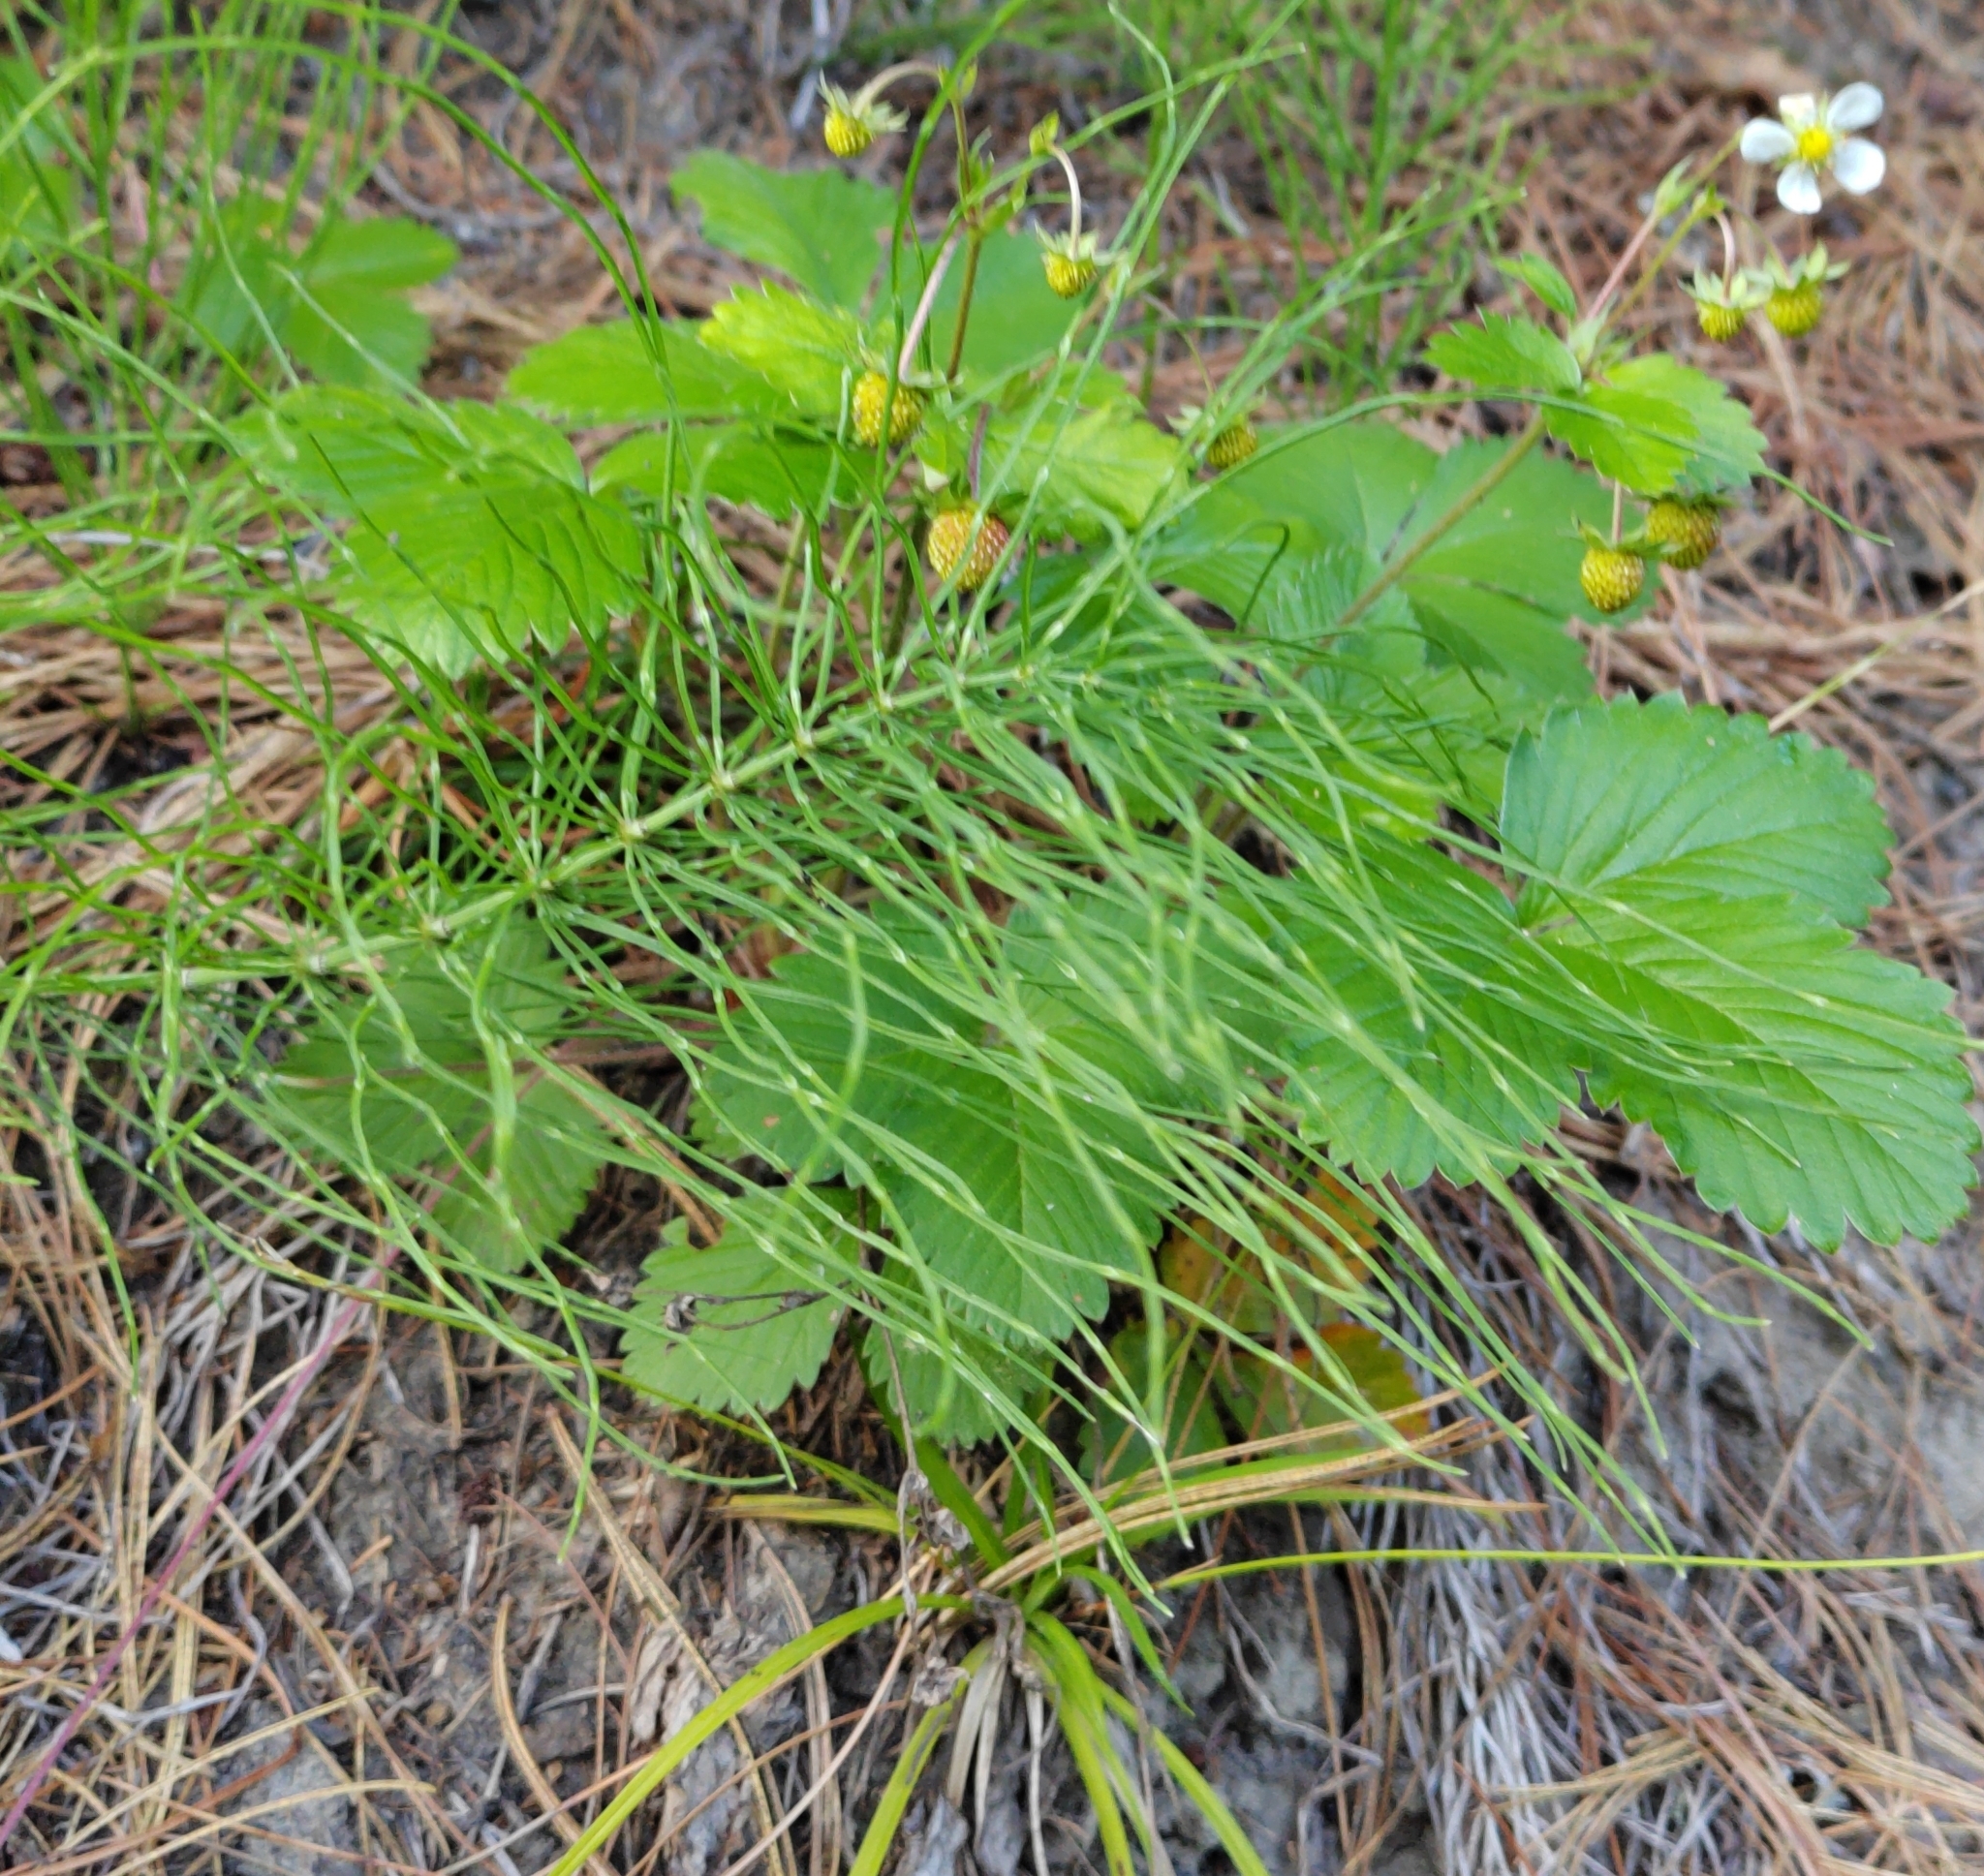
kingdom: Plantae
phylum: Tracheophyta
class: Polypodiopsida
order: Equisetales
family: Equisetaceae
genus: Equisetum
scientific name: Equisetum pratense
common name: Meadow horsetail
